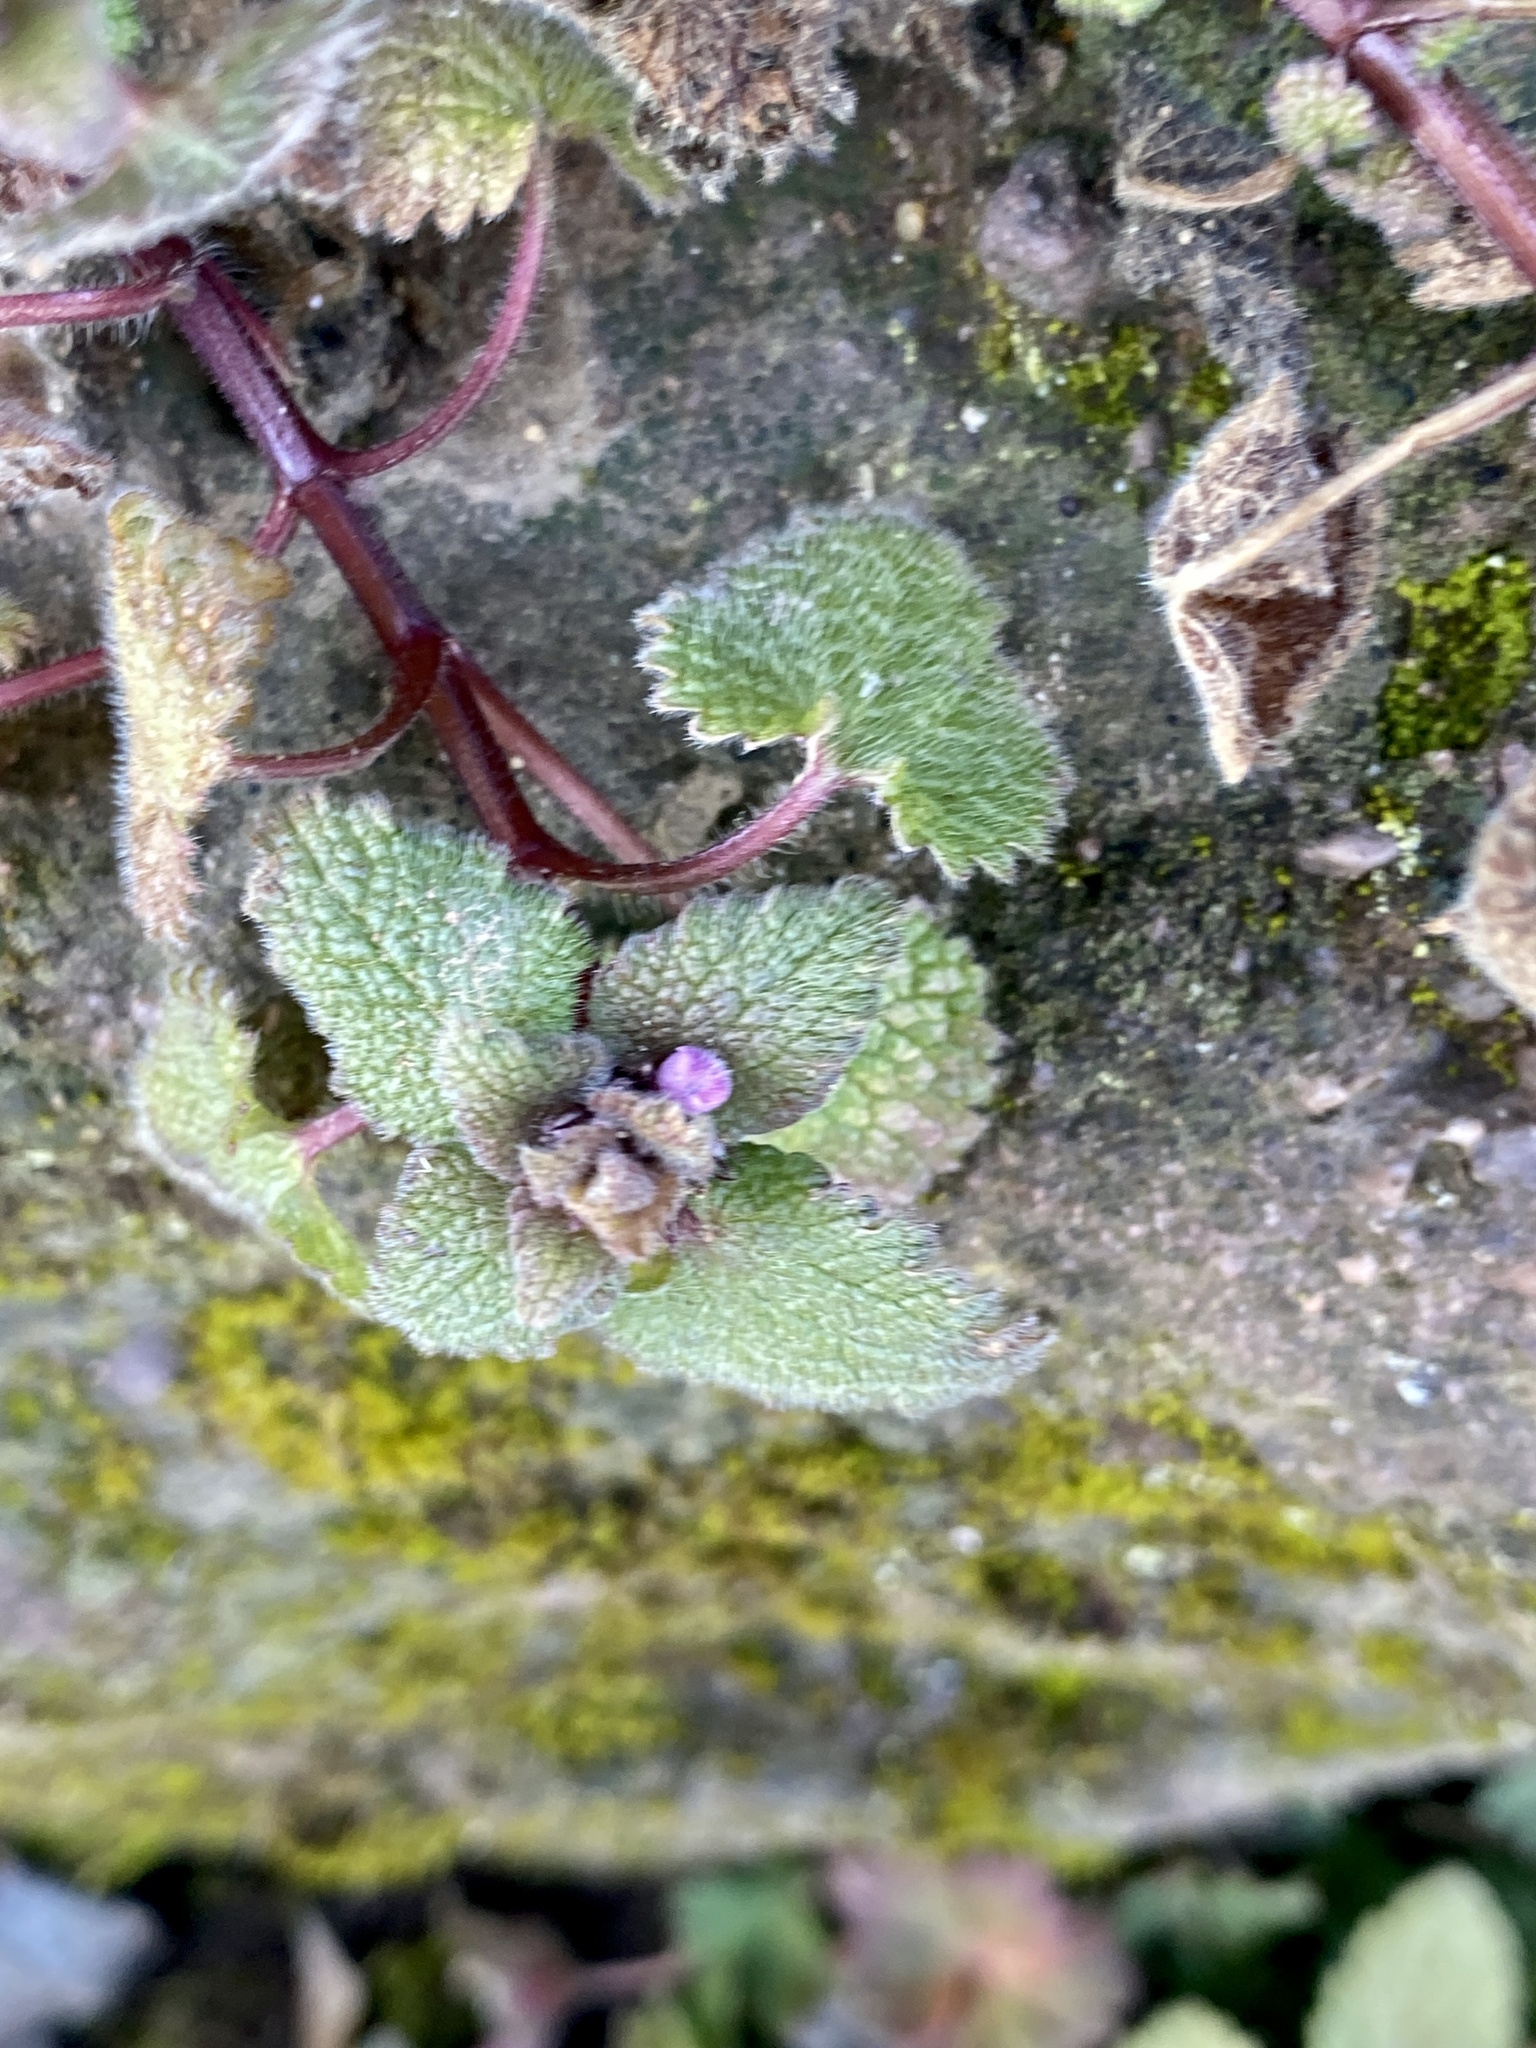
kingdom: Plantae
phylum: Tracheophyta
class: Magnoliopsida
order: Lamiales
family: Lamiaceae
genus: Lamium
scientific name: Lamium purpureum
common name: Red dead-nettle
